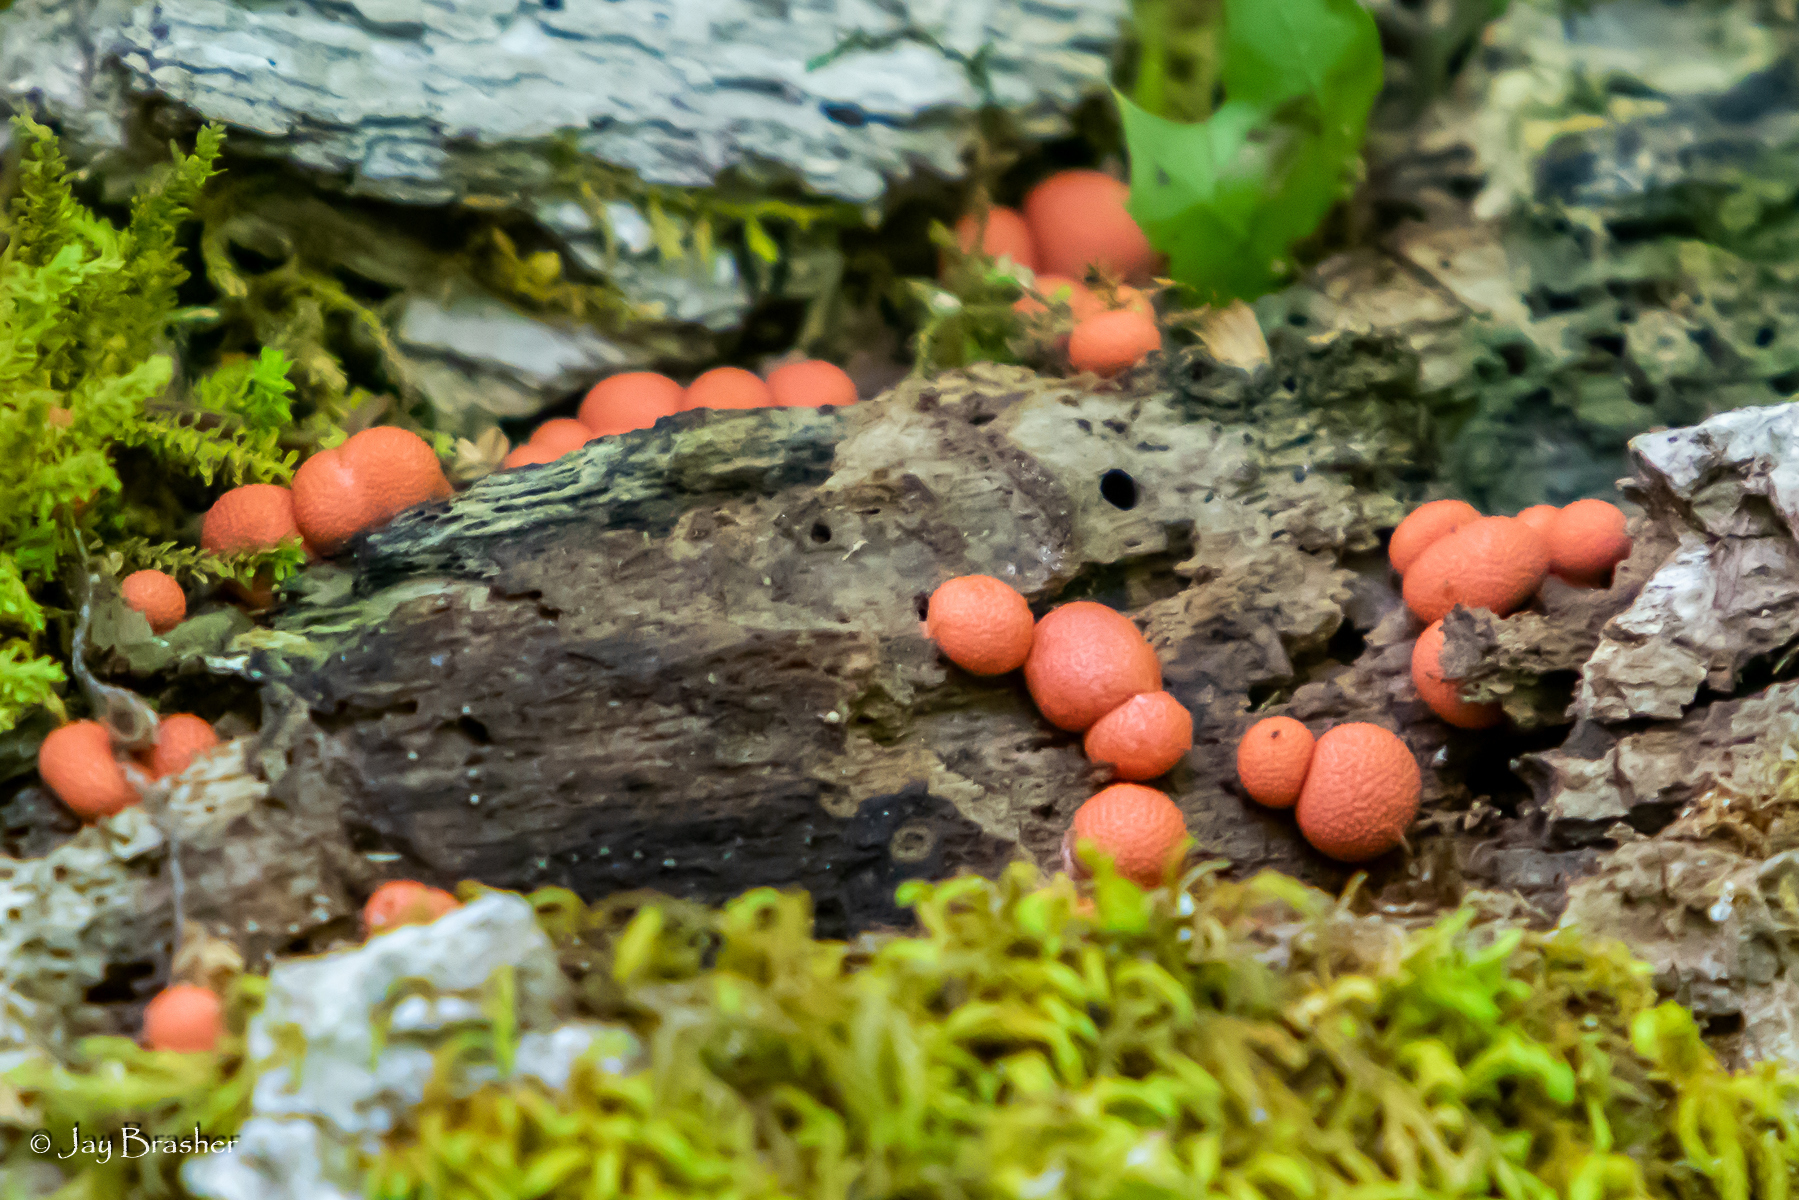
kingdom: Protozoa
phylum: Mycetozoa
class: Myxomycetes
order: Cribrariales
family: Tubiferaceae
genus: Lycogala
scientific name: Lycogala epidendrum
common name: Wolf's milk
